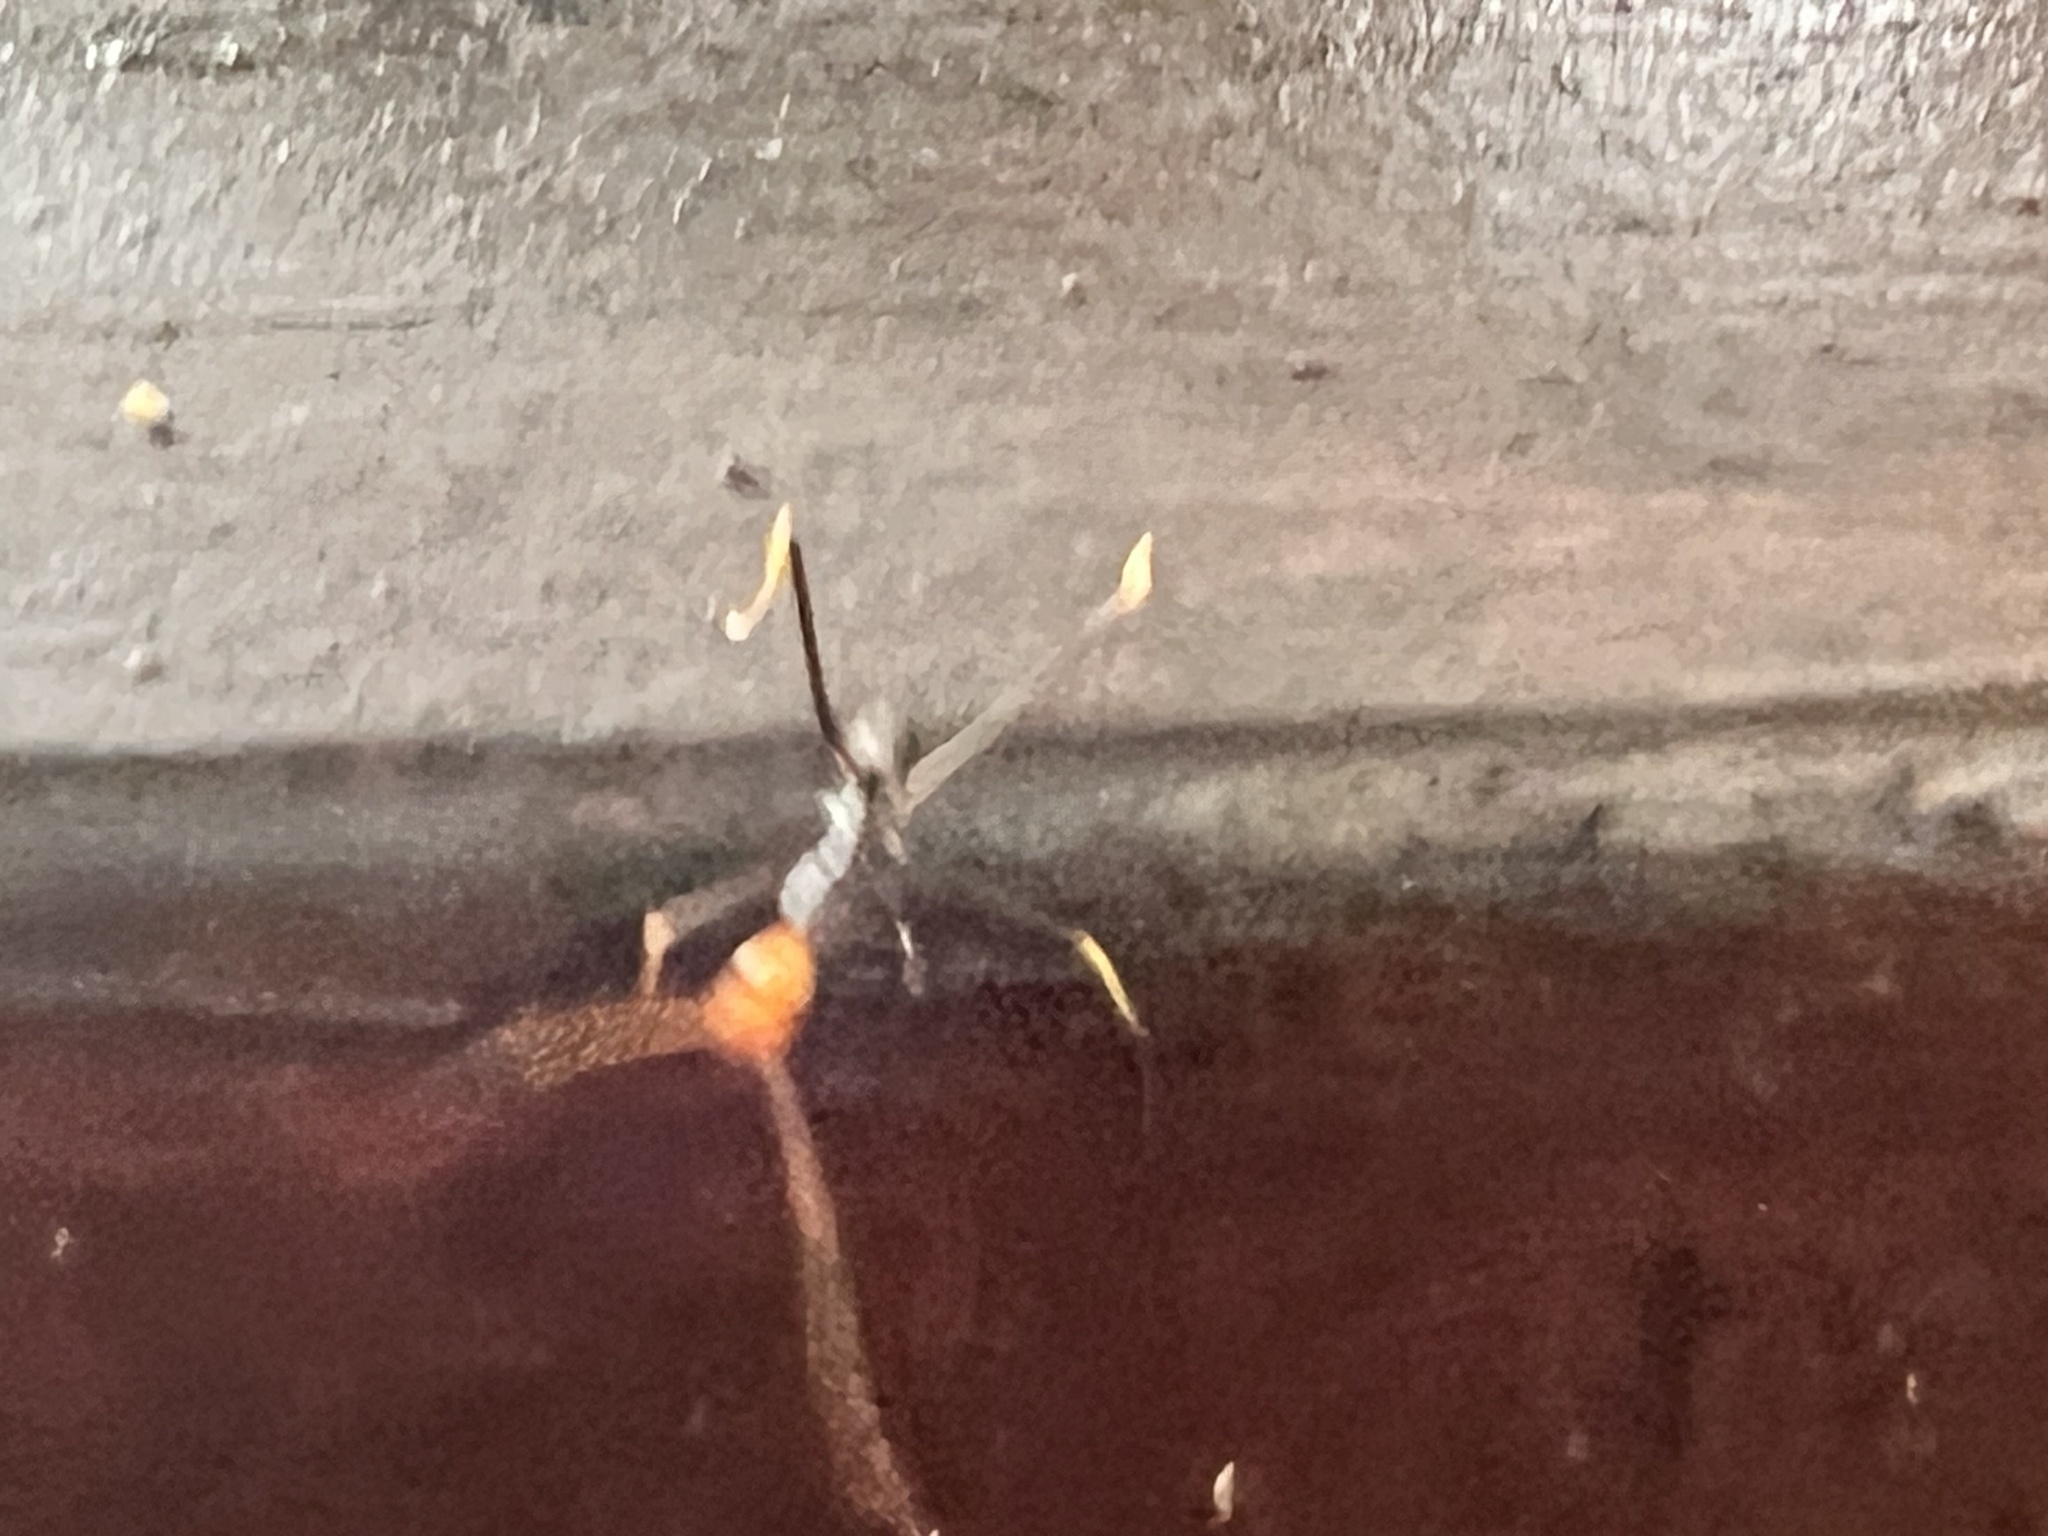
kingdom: Animalia
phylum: Arthropoda
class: Insecta
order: Hymenoptera
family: Formicidae
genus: Leptomyrmex
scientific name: Leptomyrmex ruficeps
